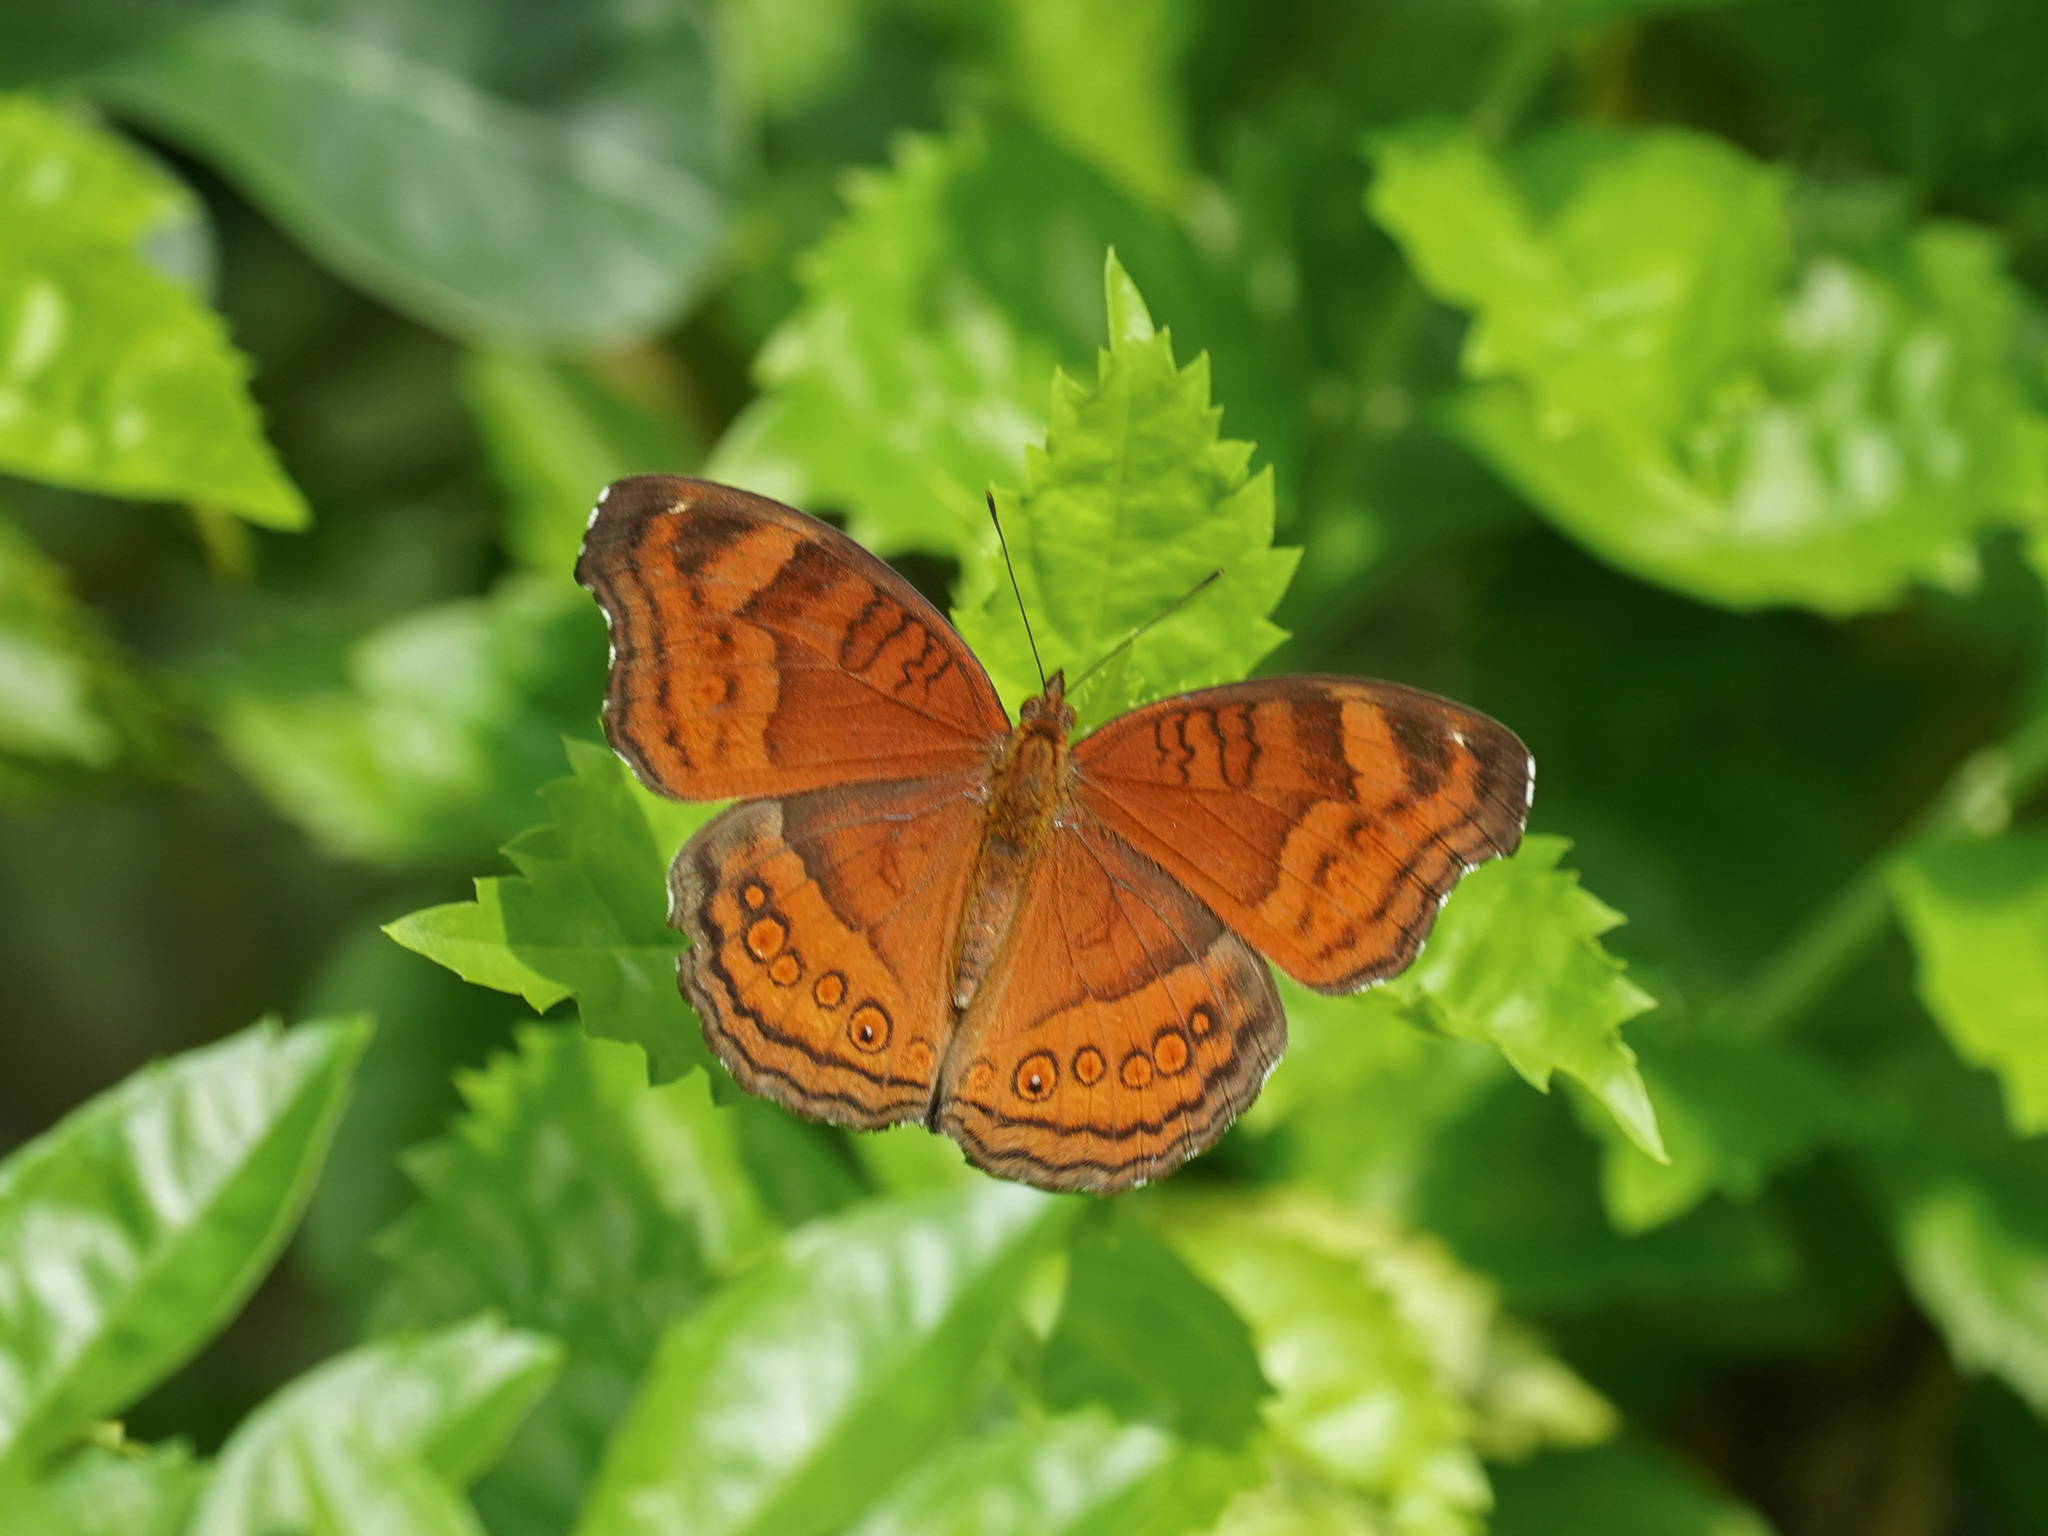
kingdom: Animalia
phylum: Arthropoda
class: Insecta
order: Lepidoptera
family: Nymphalidae
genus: Junonia
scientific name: Junonia hedonia
